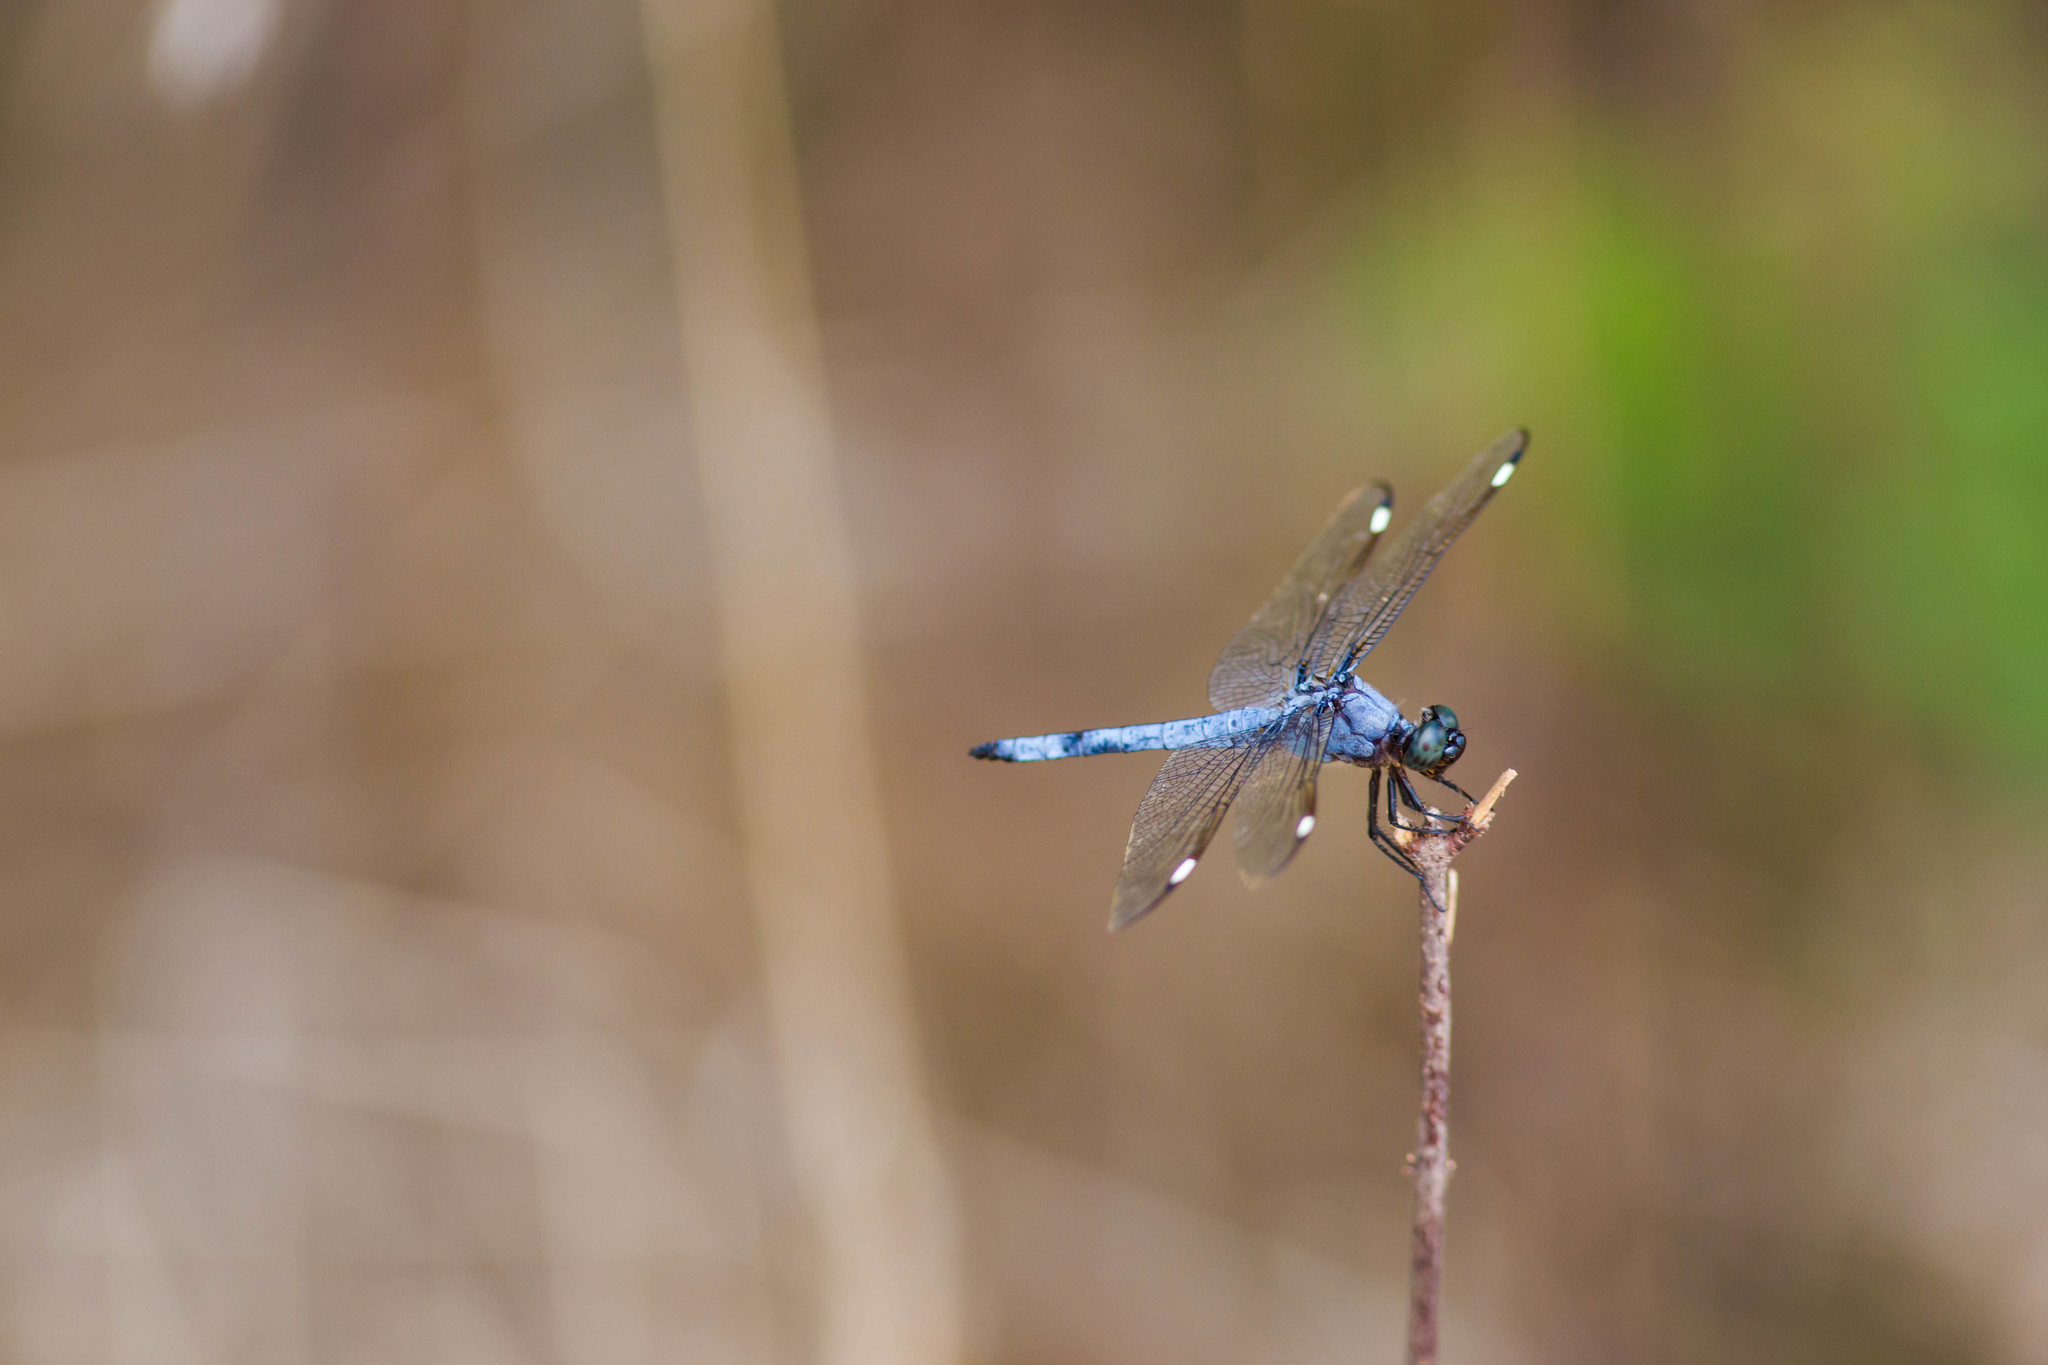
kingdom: Animalia
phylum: Arthropoda
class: Insecta
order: Odonata
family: Libellulidae
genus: Libellula
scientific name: Libellula cyanea
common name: Spangled skimmer
